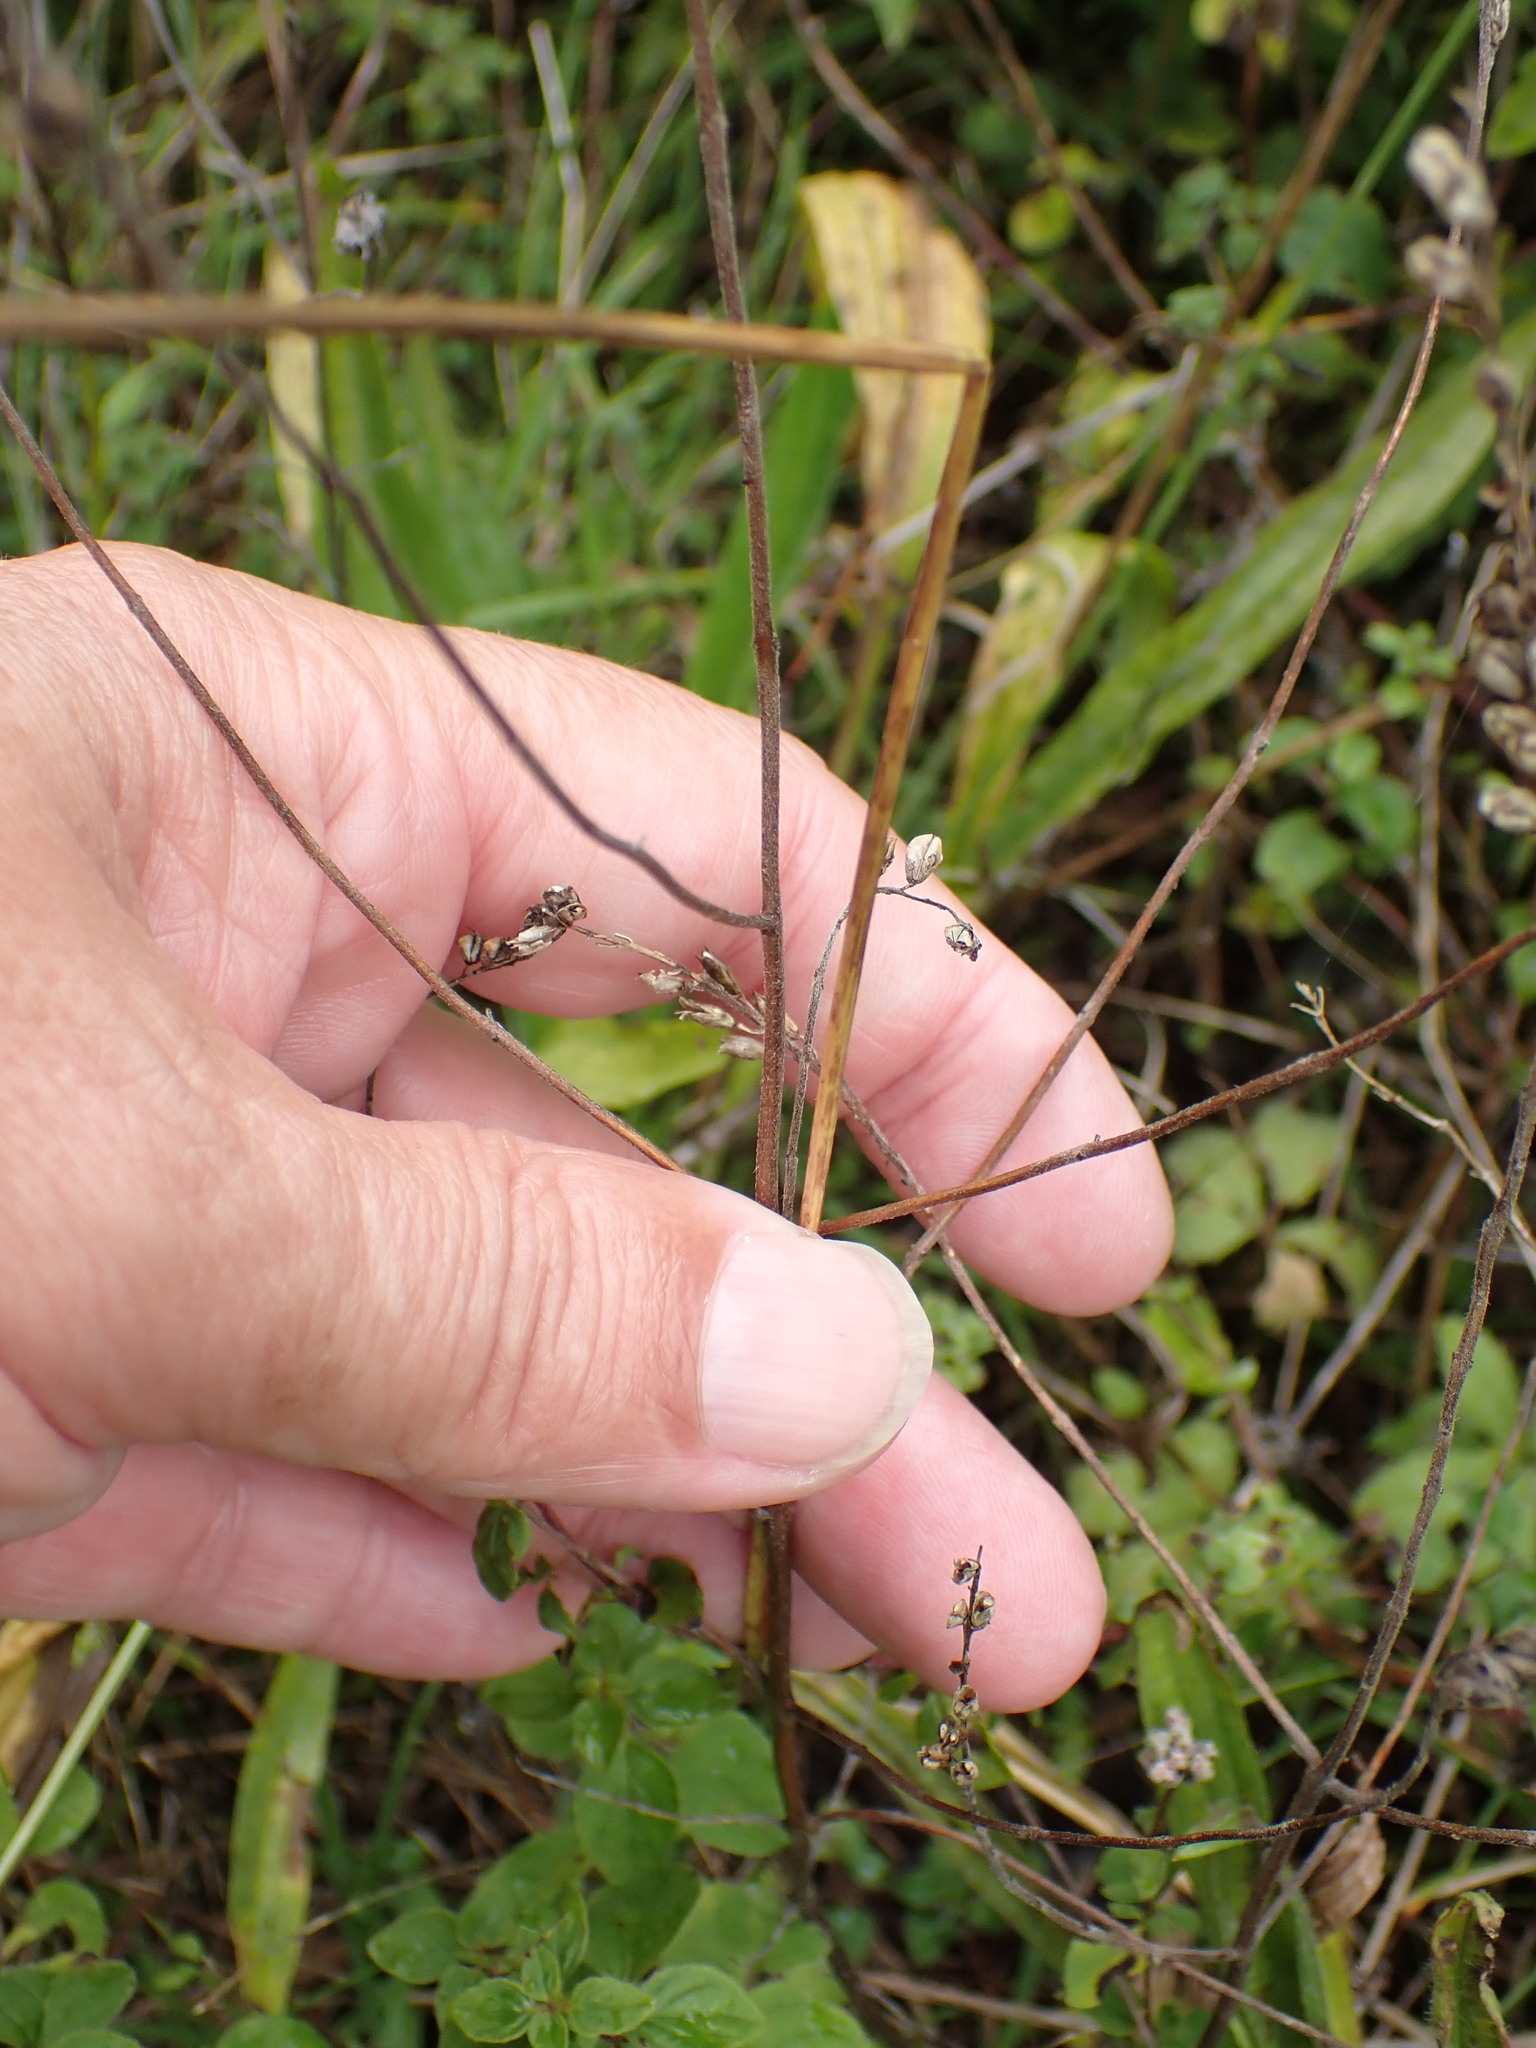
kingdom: Plantae
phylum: Tracheophyta
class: Magnoliopsida
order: Lamiales
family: Orobanchaceae
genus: Odontites
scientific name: Odontites vulgaris
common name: Broomrape
